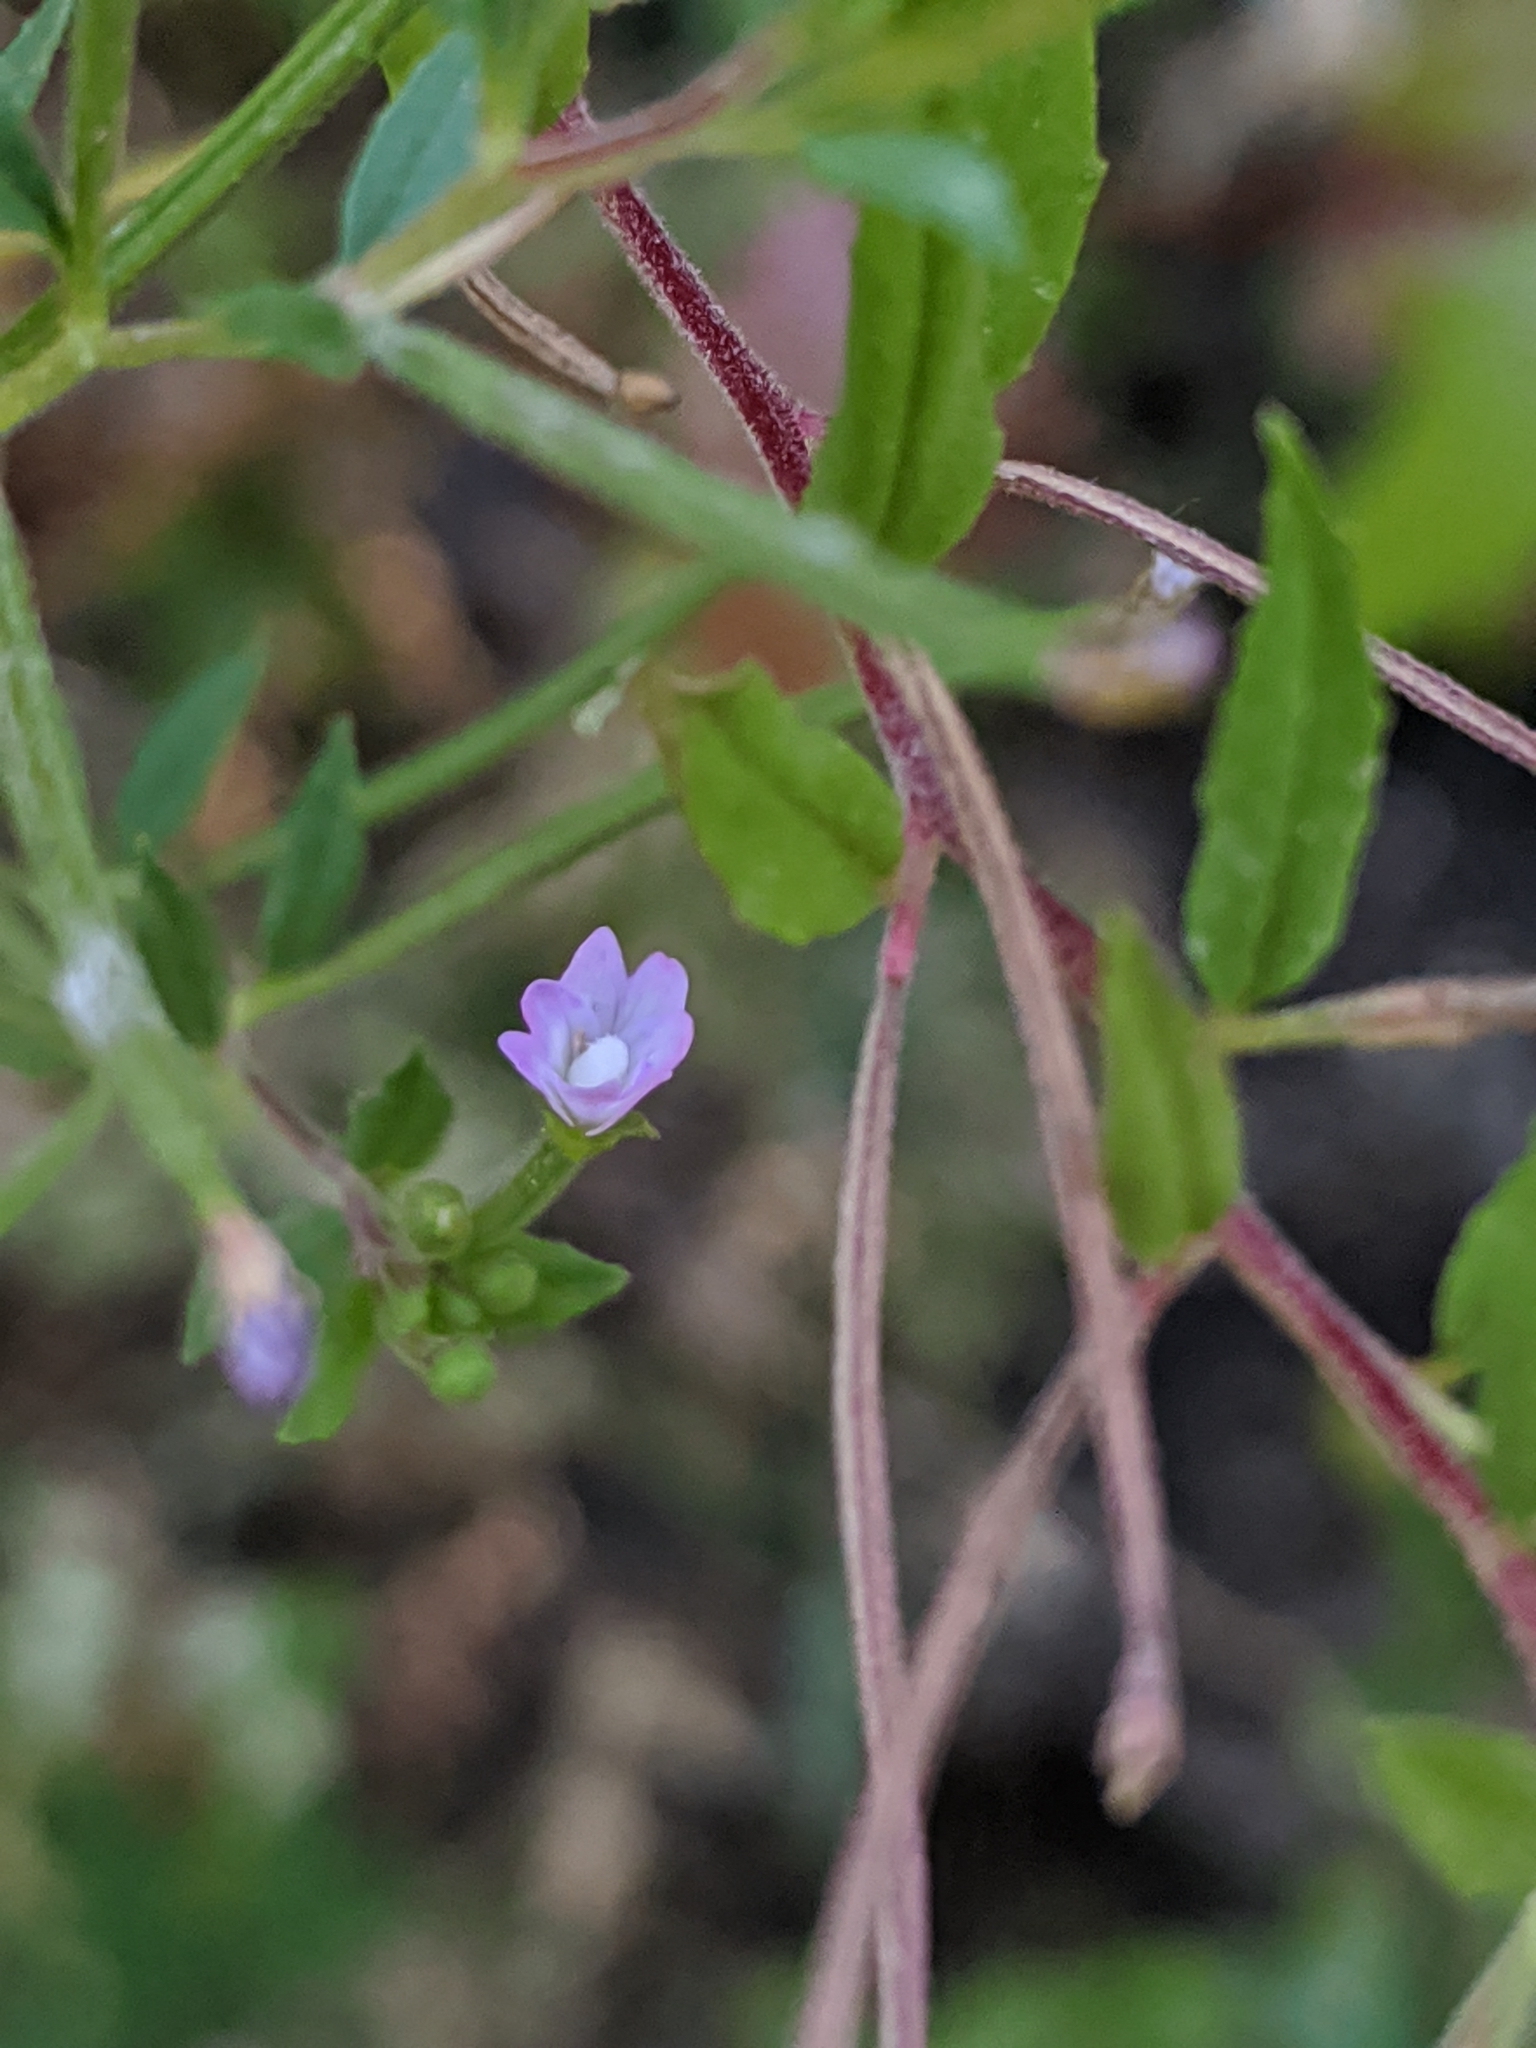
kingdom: Plantae
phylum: Tracheophyta
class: Magnoliopsida
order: Myrtales
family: Onagraceae
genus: Epilobium
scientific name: Epilobium ciliatum
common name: American willowherb
